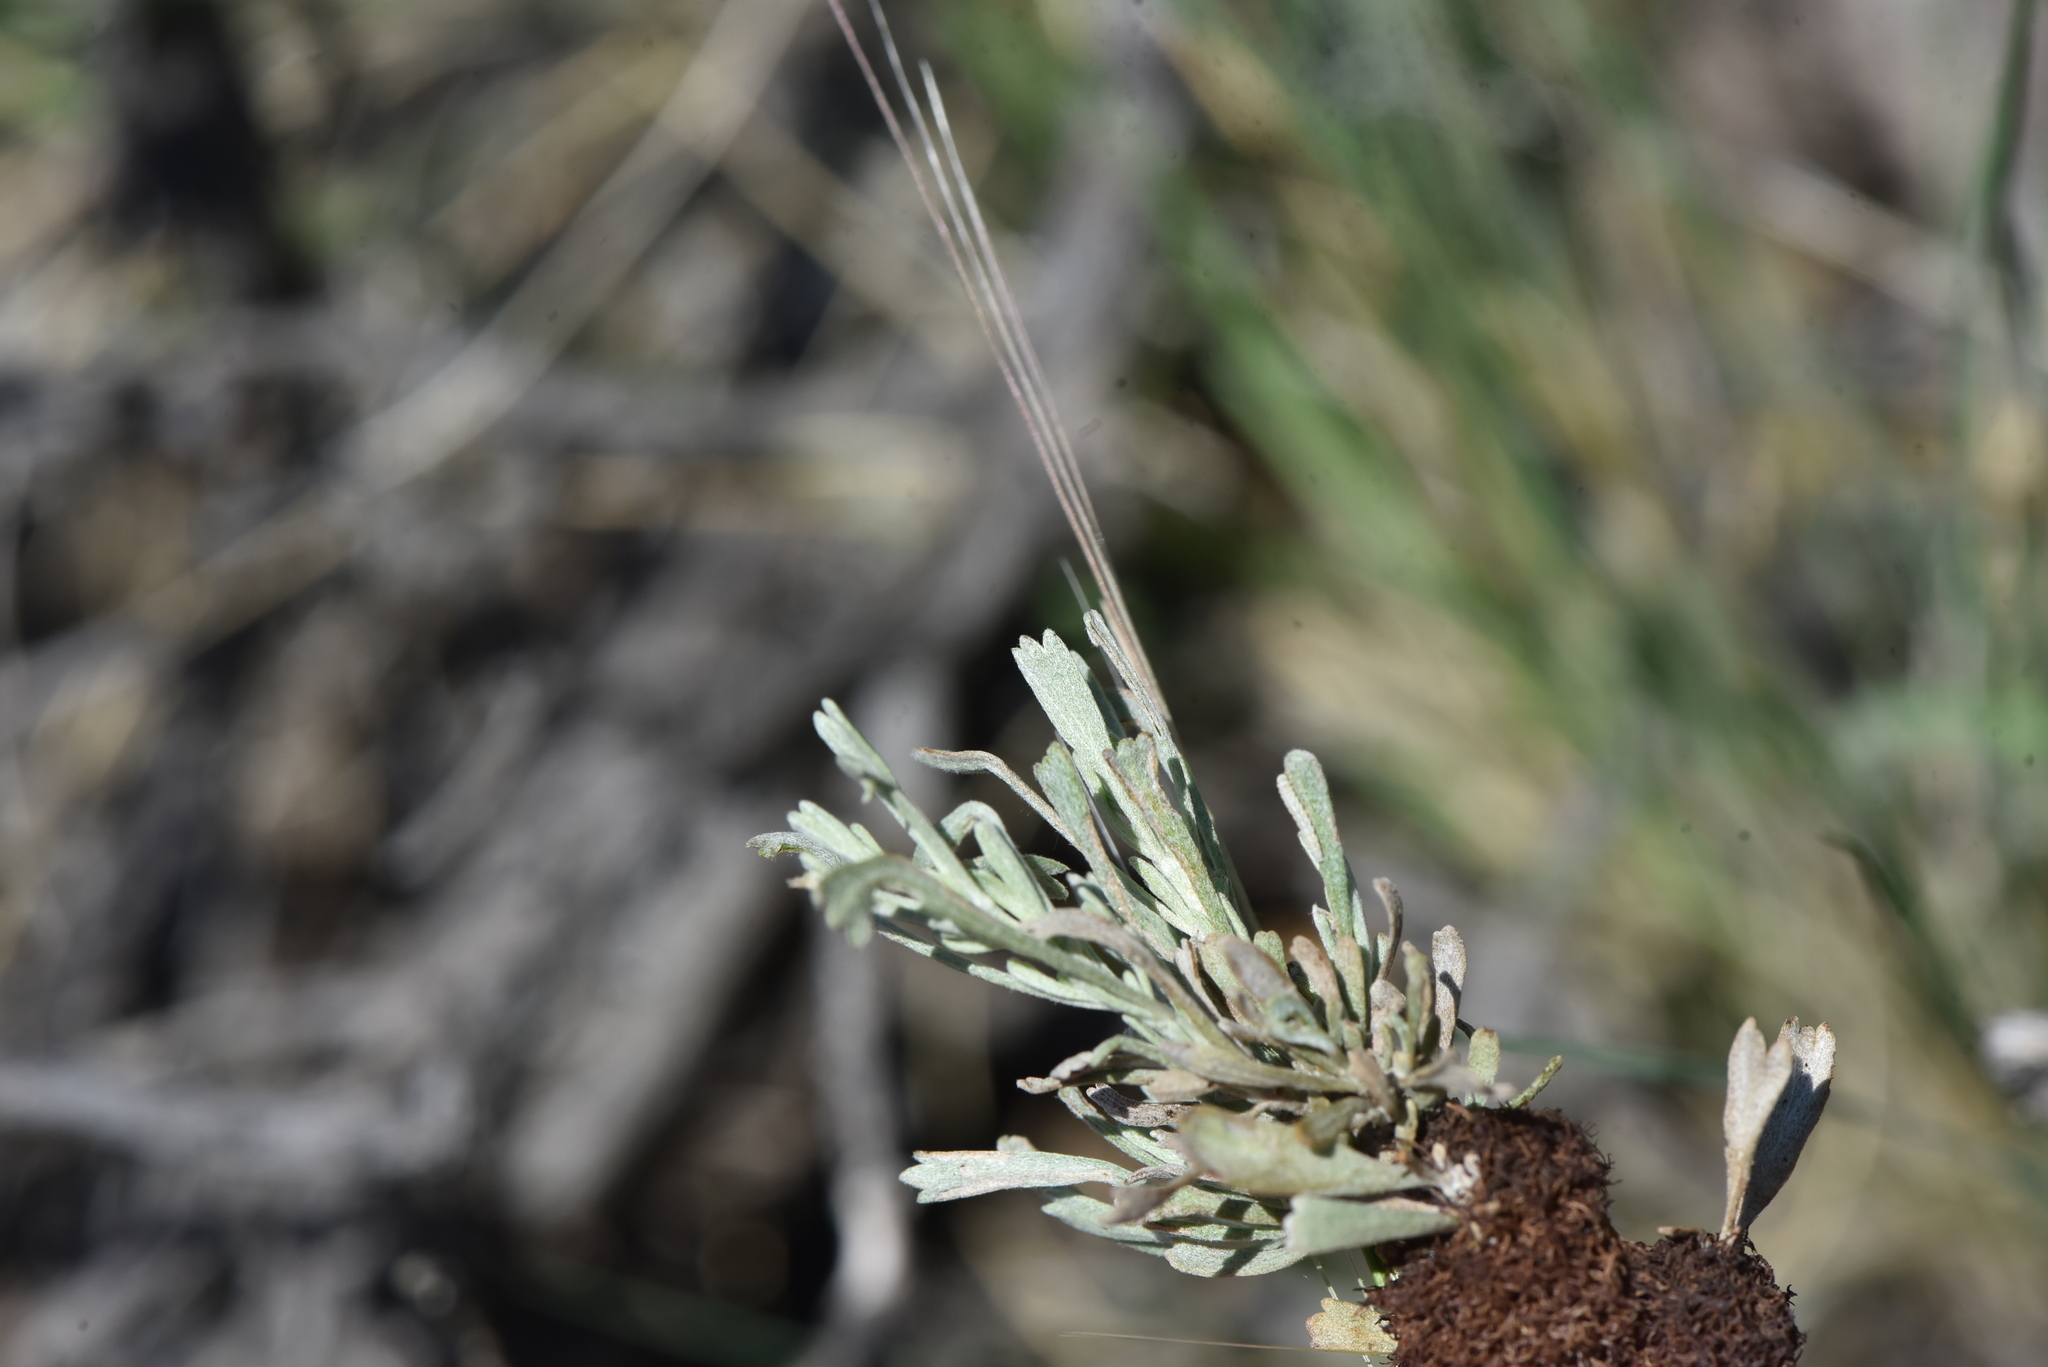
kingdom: Animalia
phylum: Arthropoda
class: Insecta
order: Diptera
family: Cecidomyiidae
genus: Rhopalomyia
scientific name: Rhopalomyia medusa
